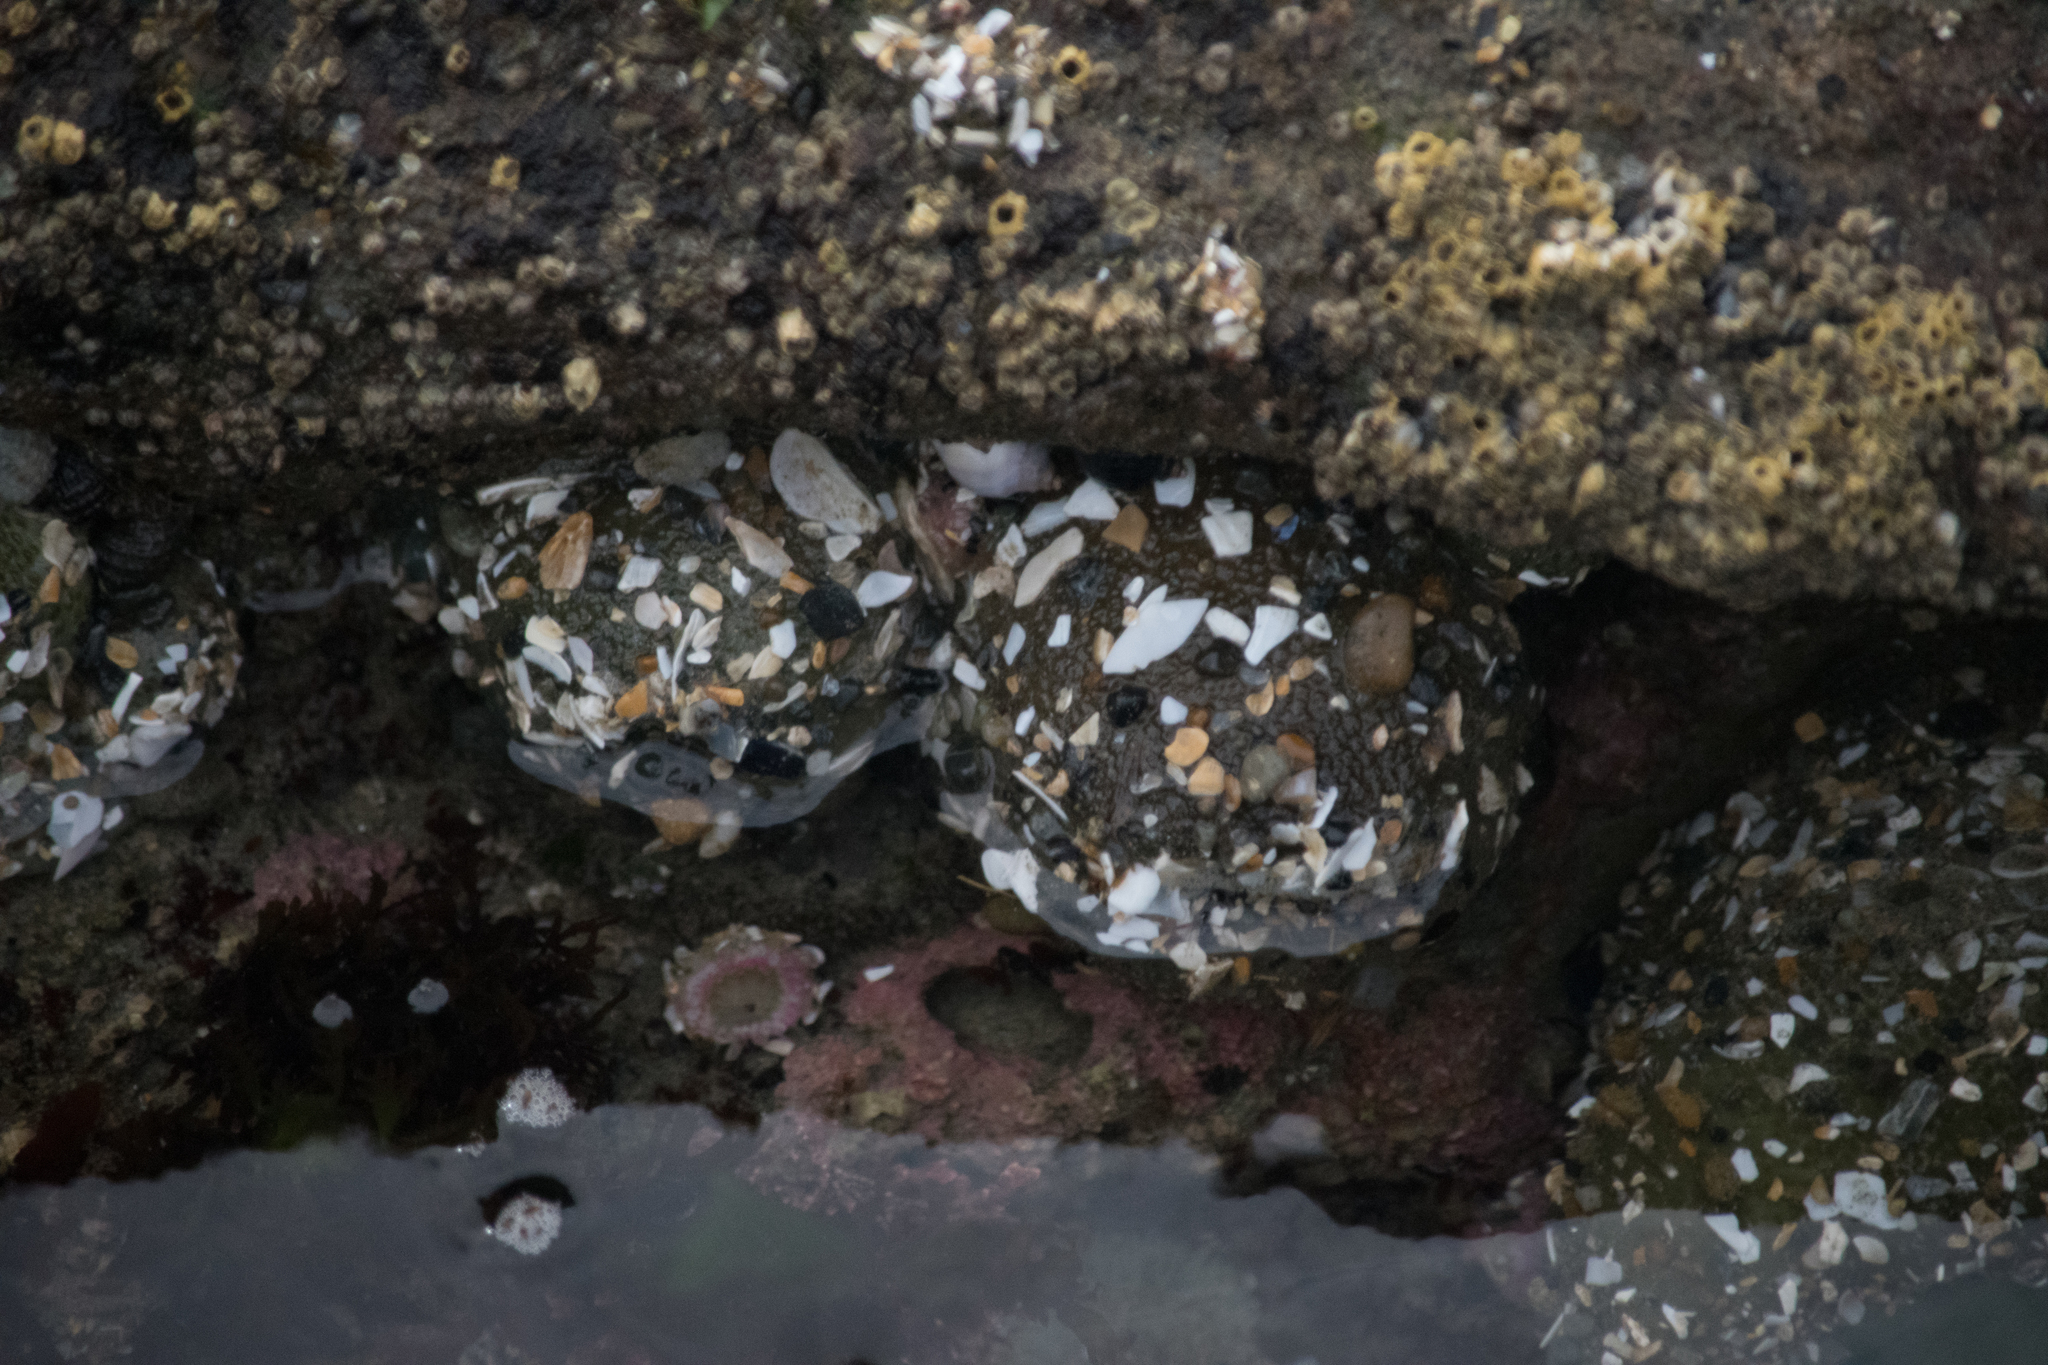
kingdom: Animalia
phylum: Cnidaria
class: Anthozoa
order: Actiniaria
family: Actiniidae
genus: Anthopleura
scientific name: Anthopleura
